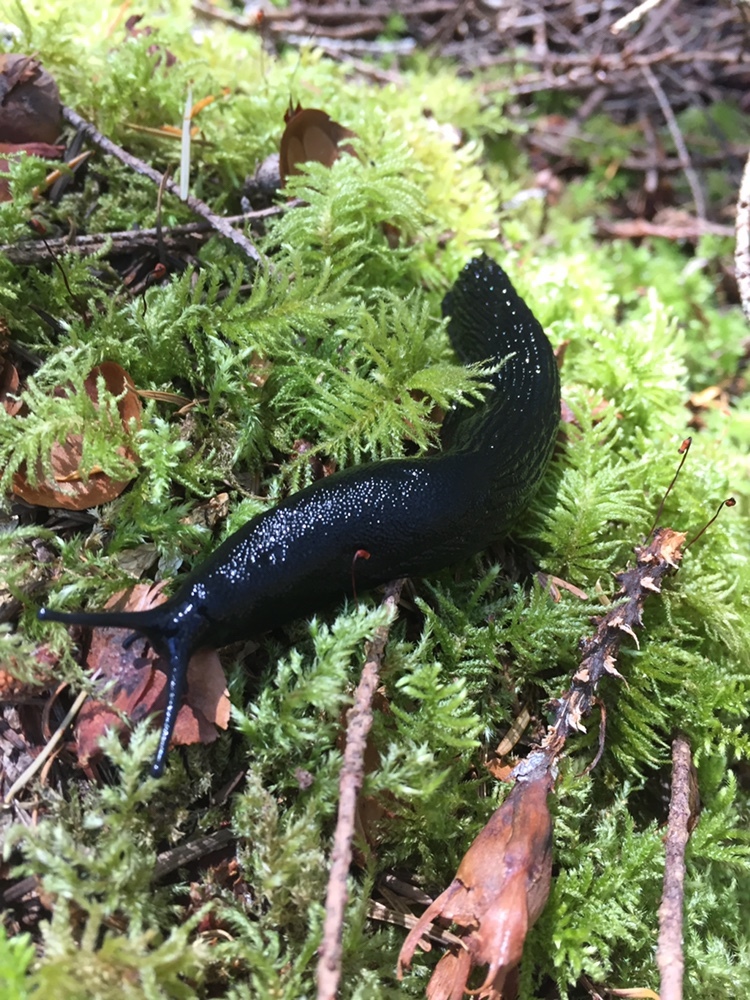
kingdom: Animalia
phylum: Mollusca
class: Gastropoda
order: Stylommatophora
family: Arionidae
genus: Arion
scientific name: Arion
